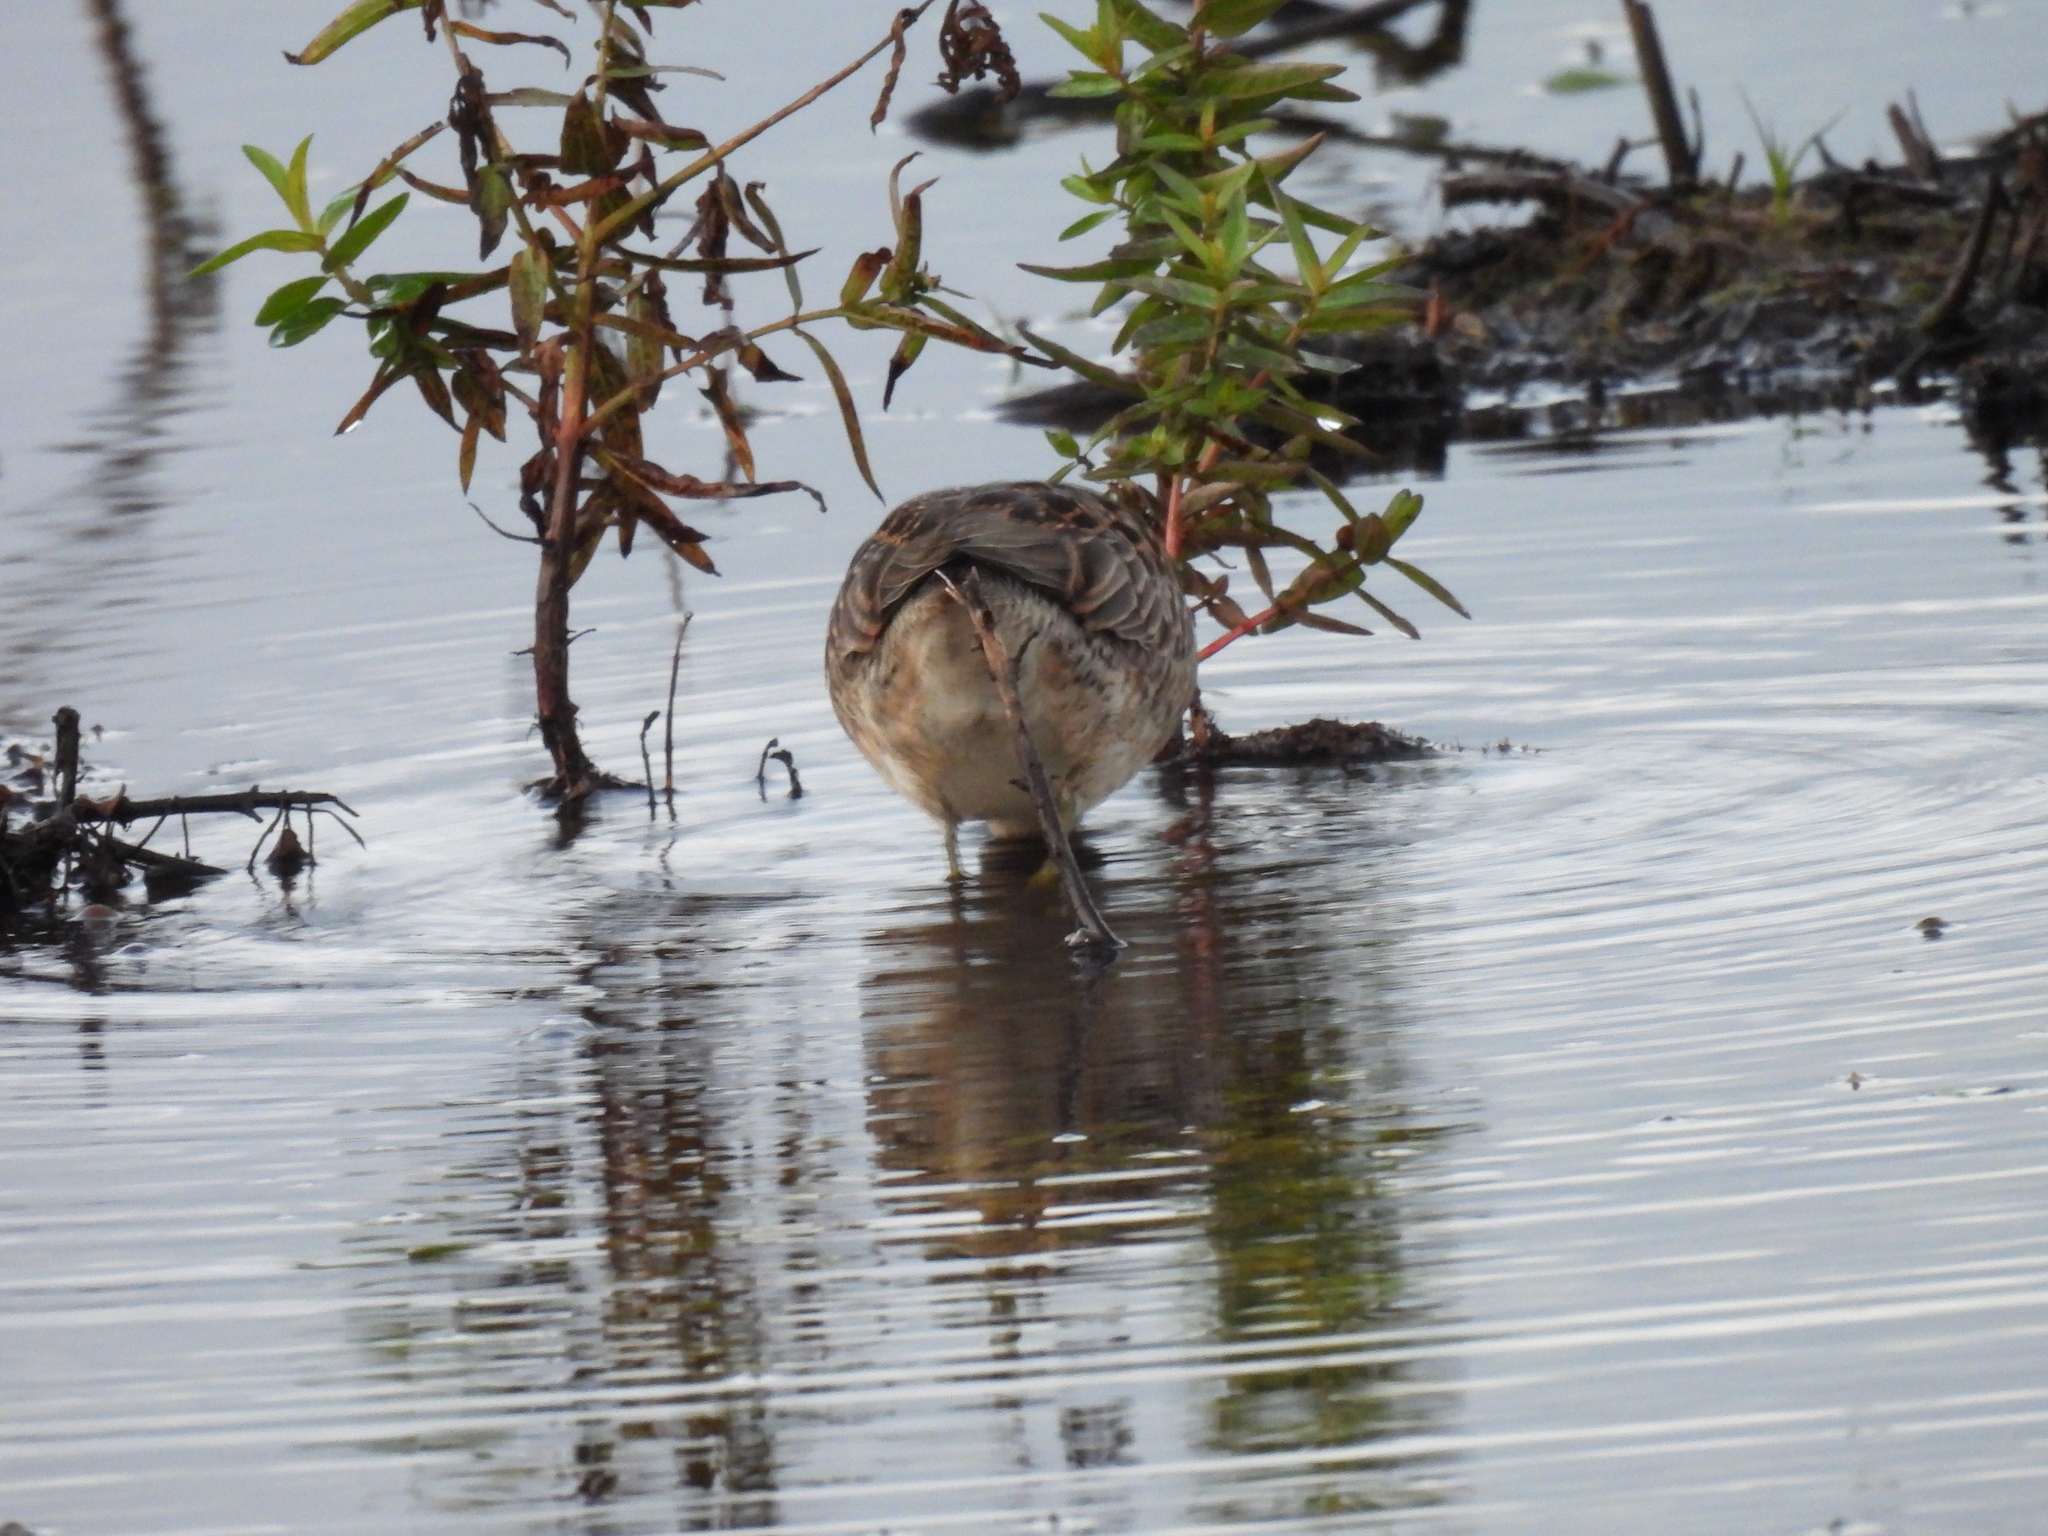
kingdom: Animalia
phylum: Chordata
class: Aves
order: Charadriiformes
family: Scolopacidae
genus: Limnodromus
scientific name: Limnodromus scolopaceus
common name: Long-billed dowitcher
